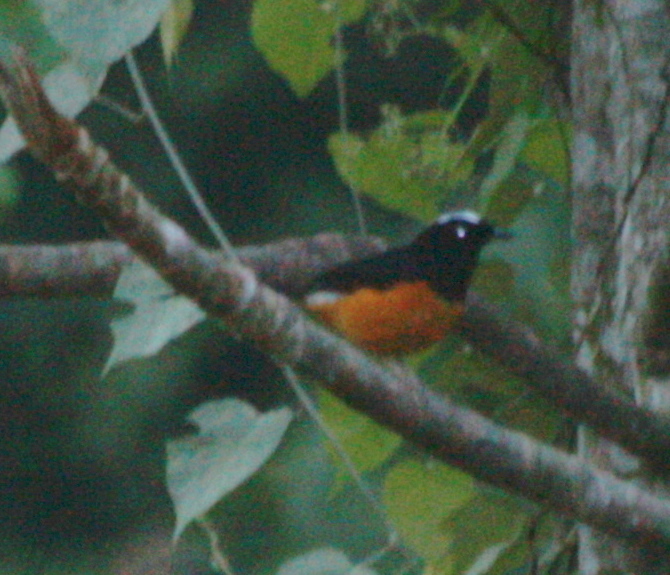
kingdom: Animalia
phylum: Chordata
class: Aves
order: Passeriformes
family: Muscicapidae
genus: Copsychus
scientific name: Copsychus stricklandii
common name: White-crowned shama
